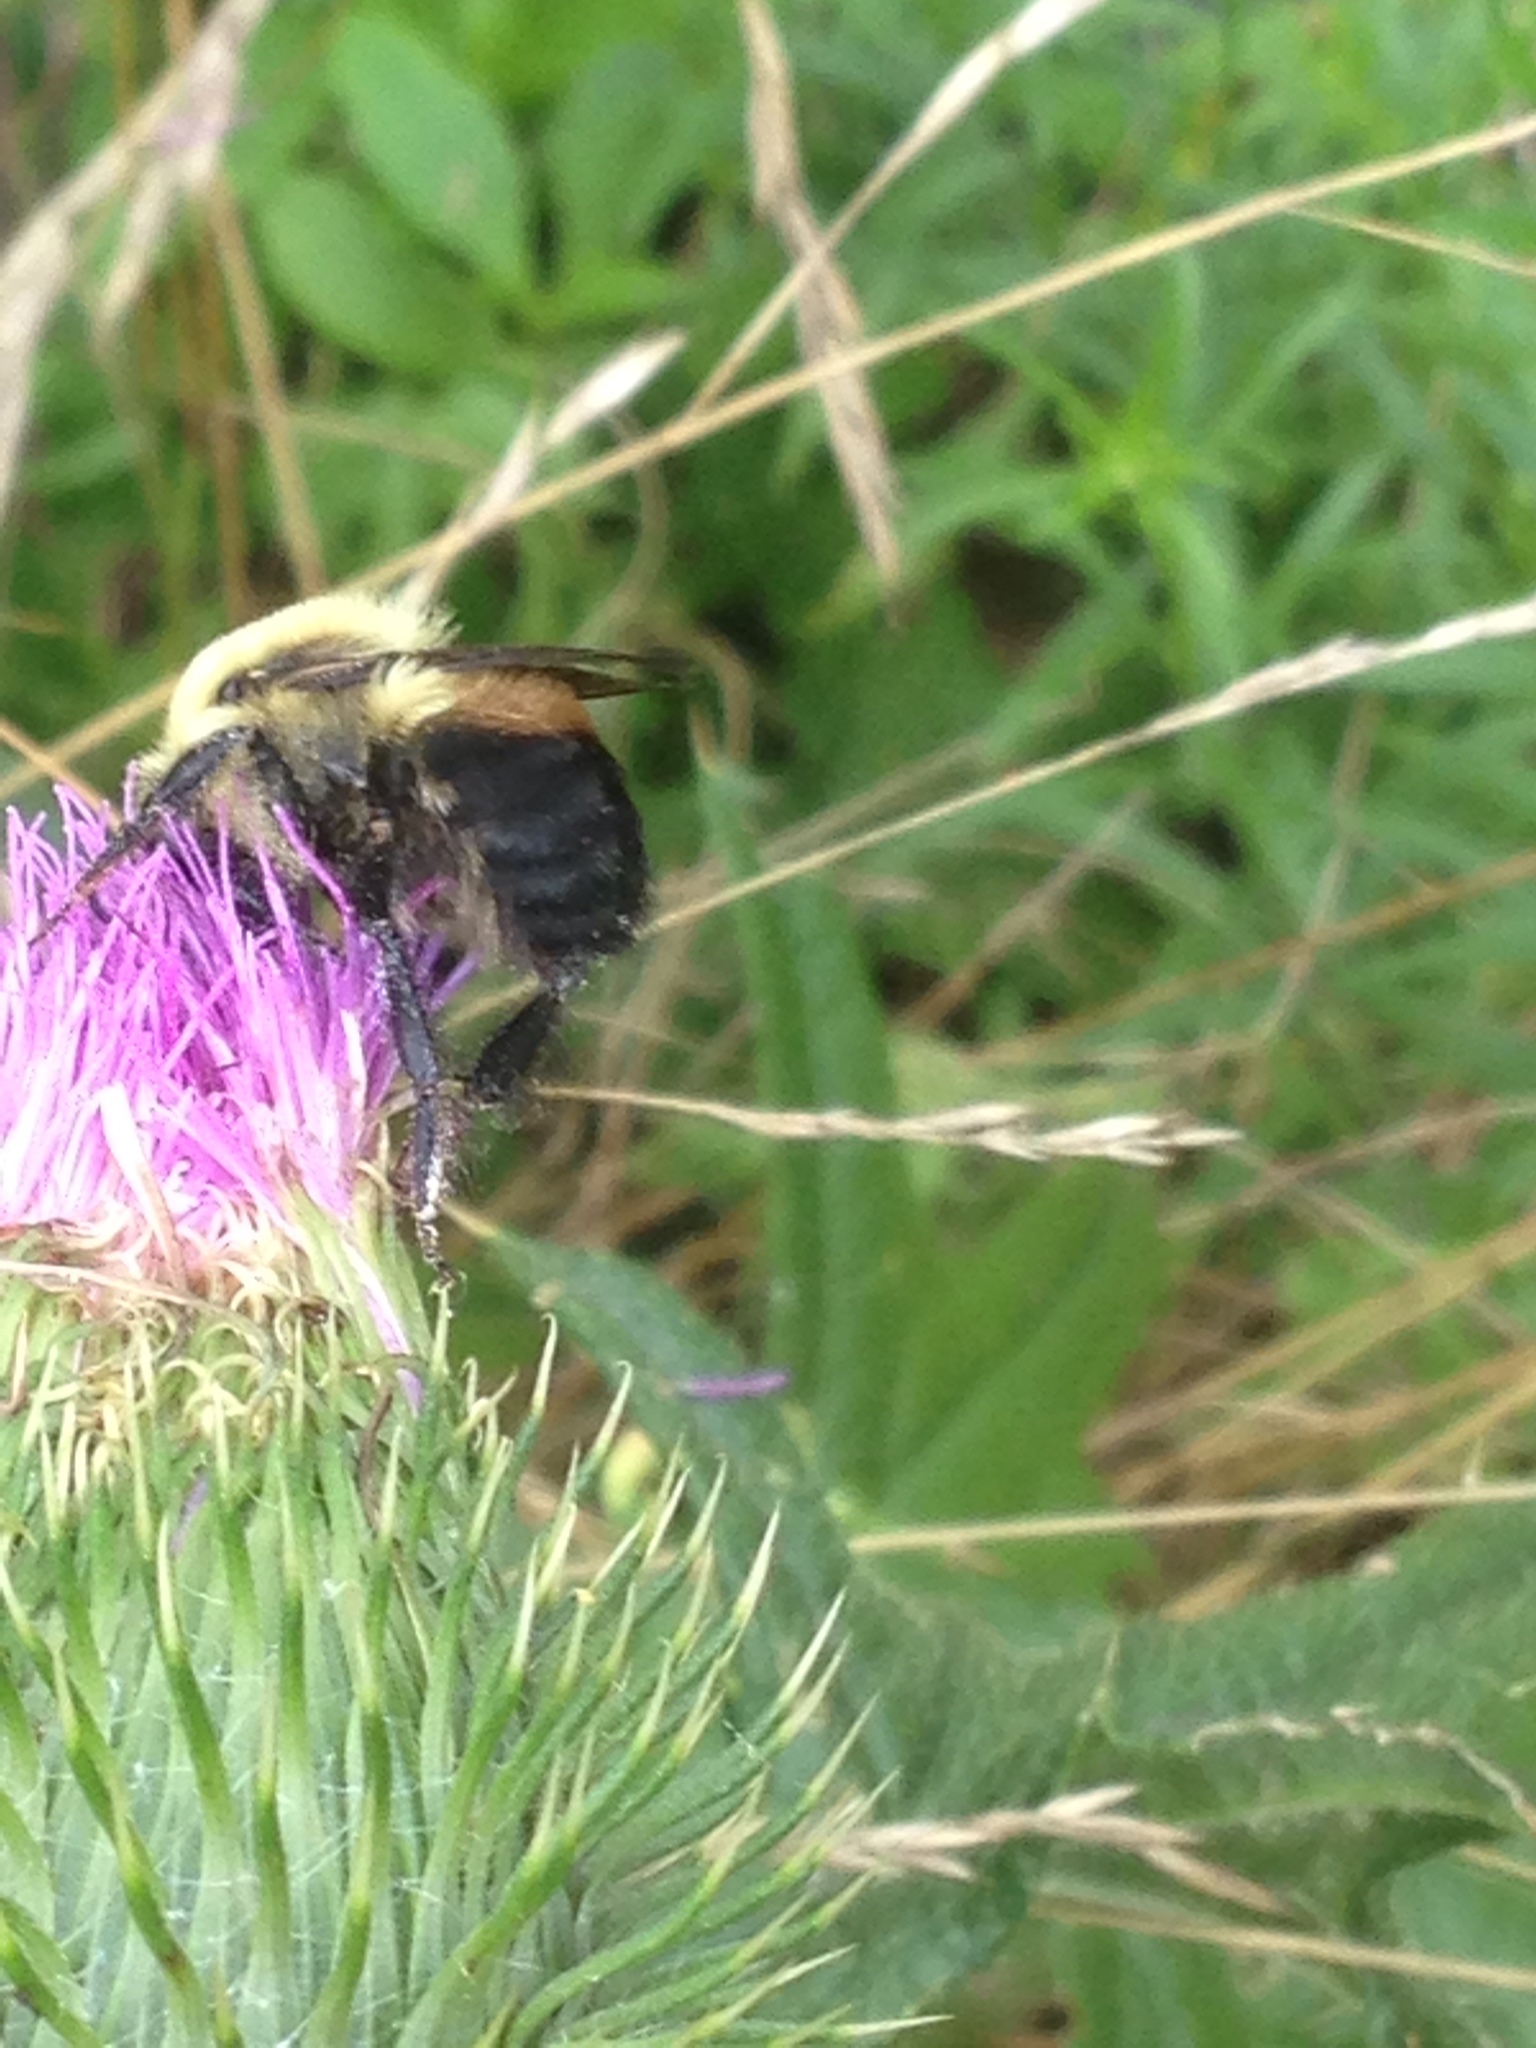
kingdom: Animalia
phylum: Arthropoda
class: Insecta
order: Hymenoptera
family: Apidae
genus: Bombus
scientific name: Bombus griseocollis
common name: Brown-belted bumble bee
